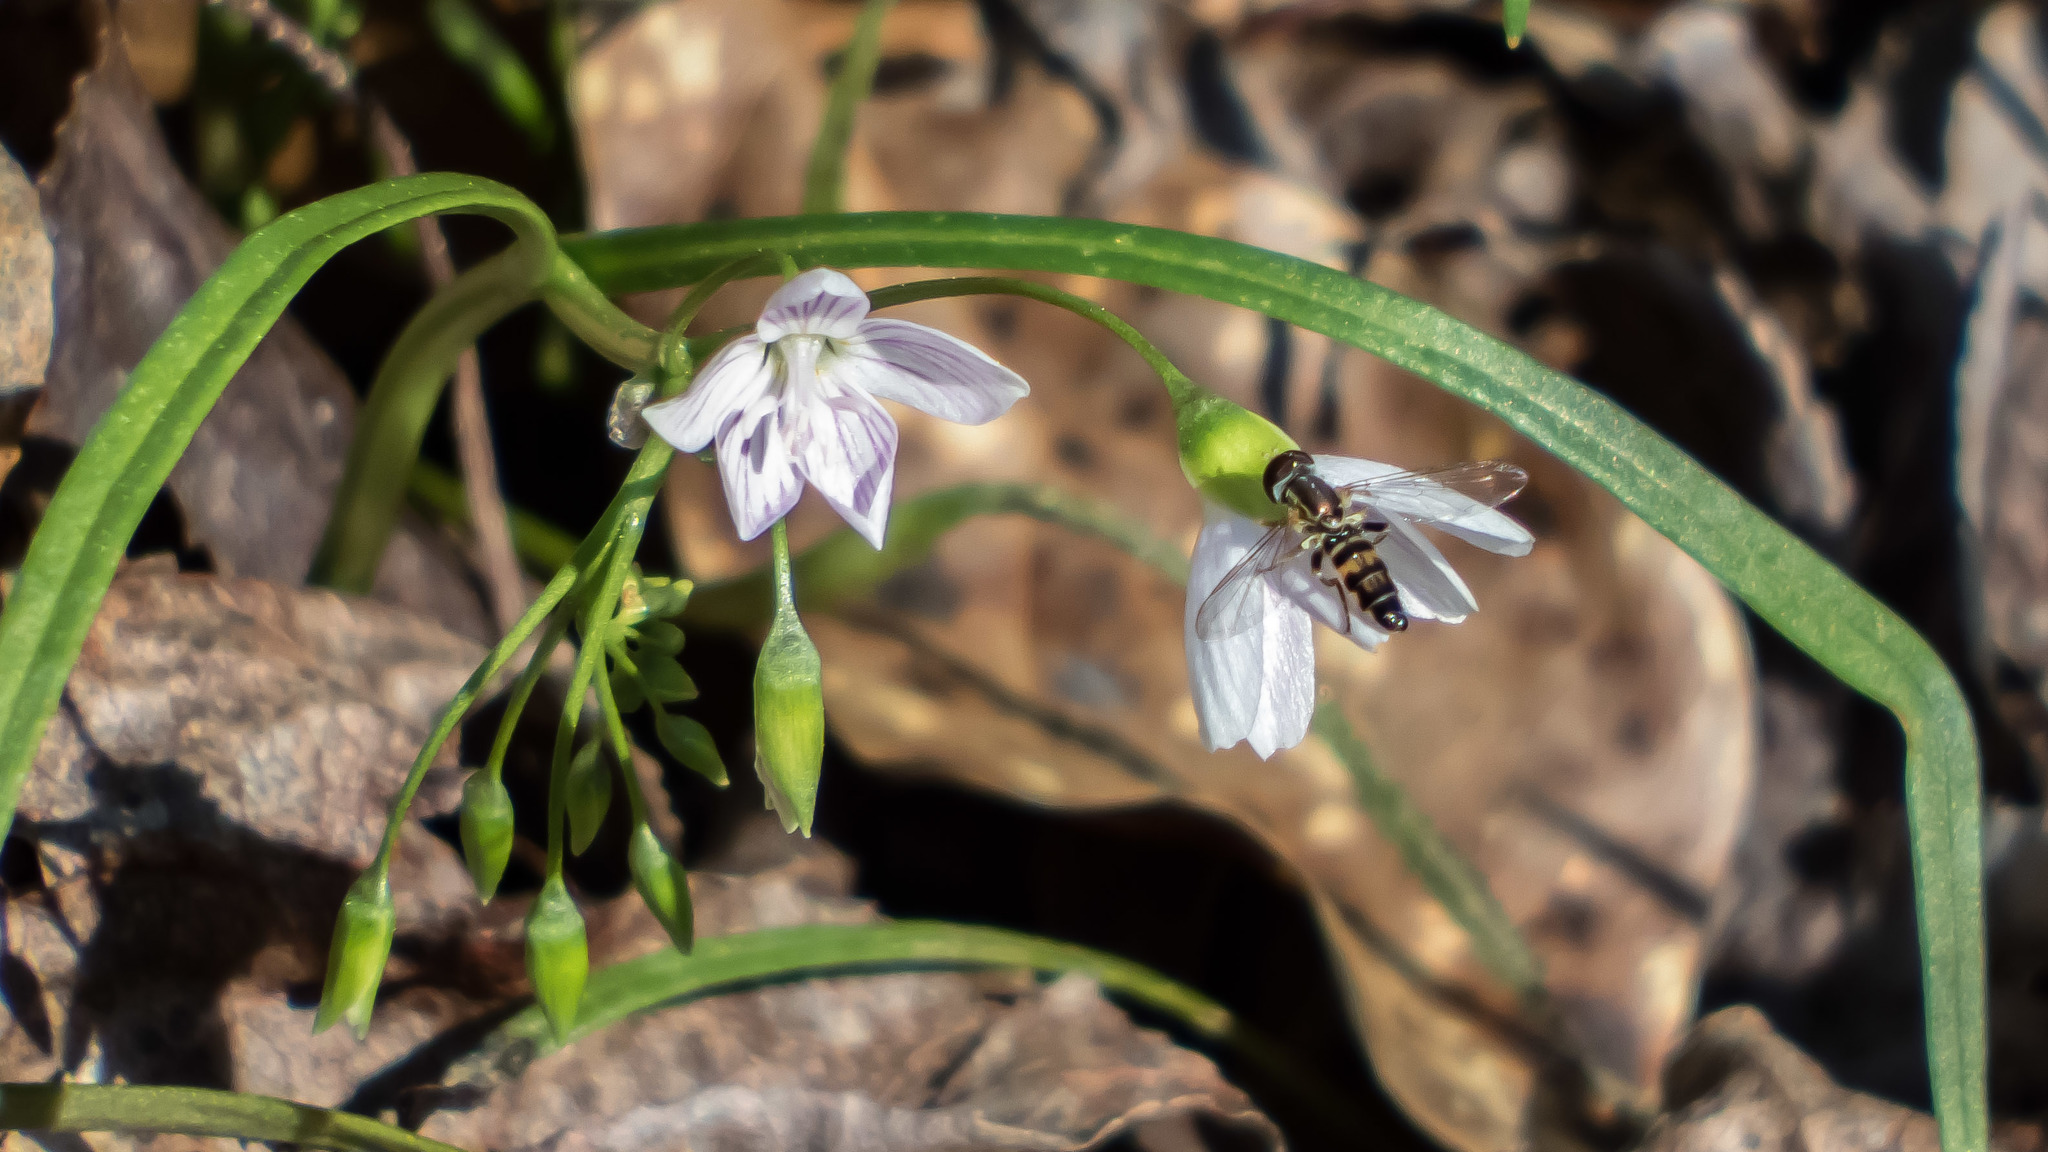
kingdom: Animalia
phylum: Arthropoda
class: Insecta
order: Diptera
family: Syrphidae
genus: Toxomerus
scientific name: Toxomerus geminatus
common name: Eastern calligrapher
